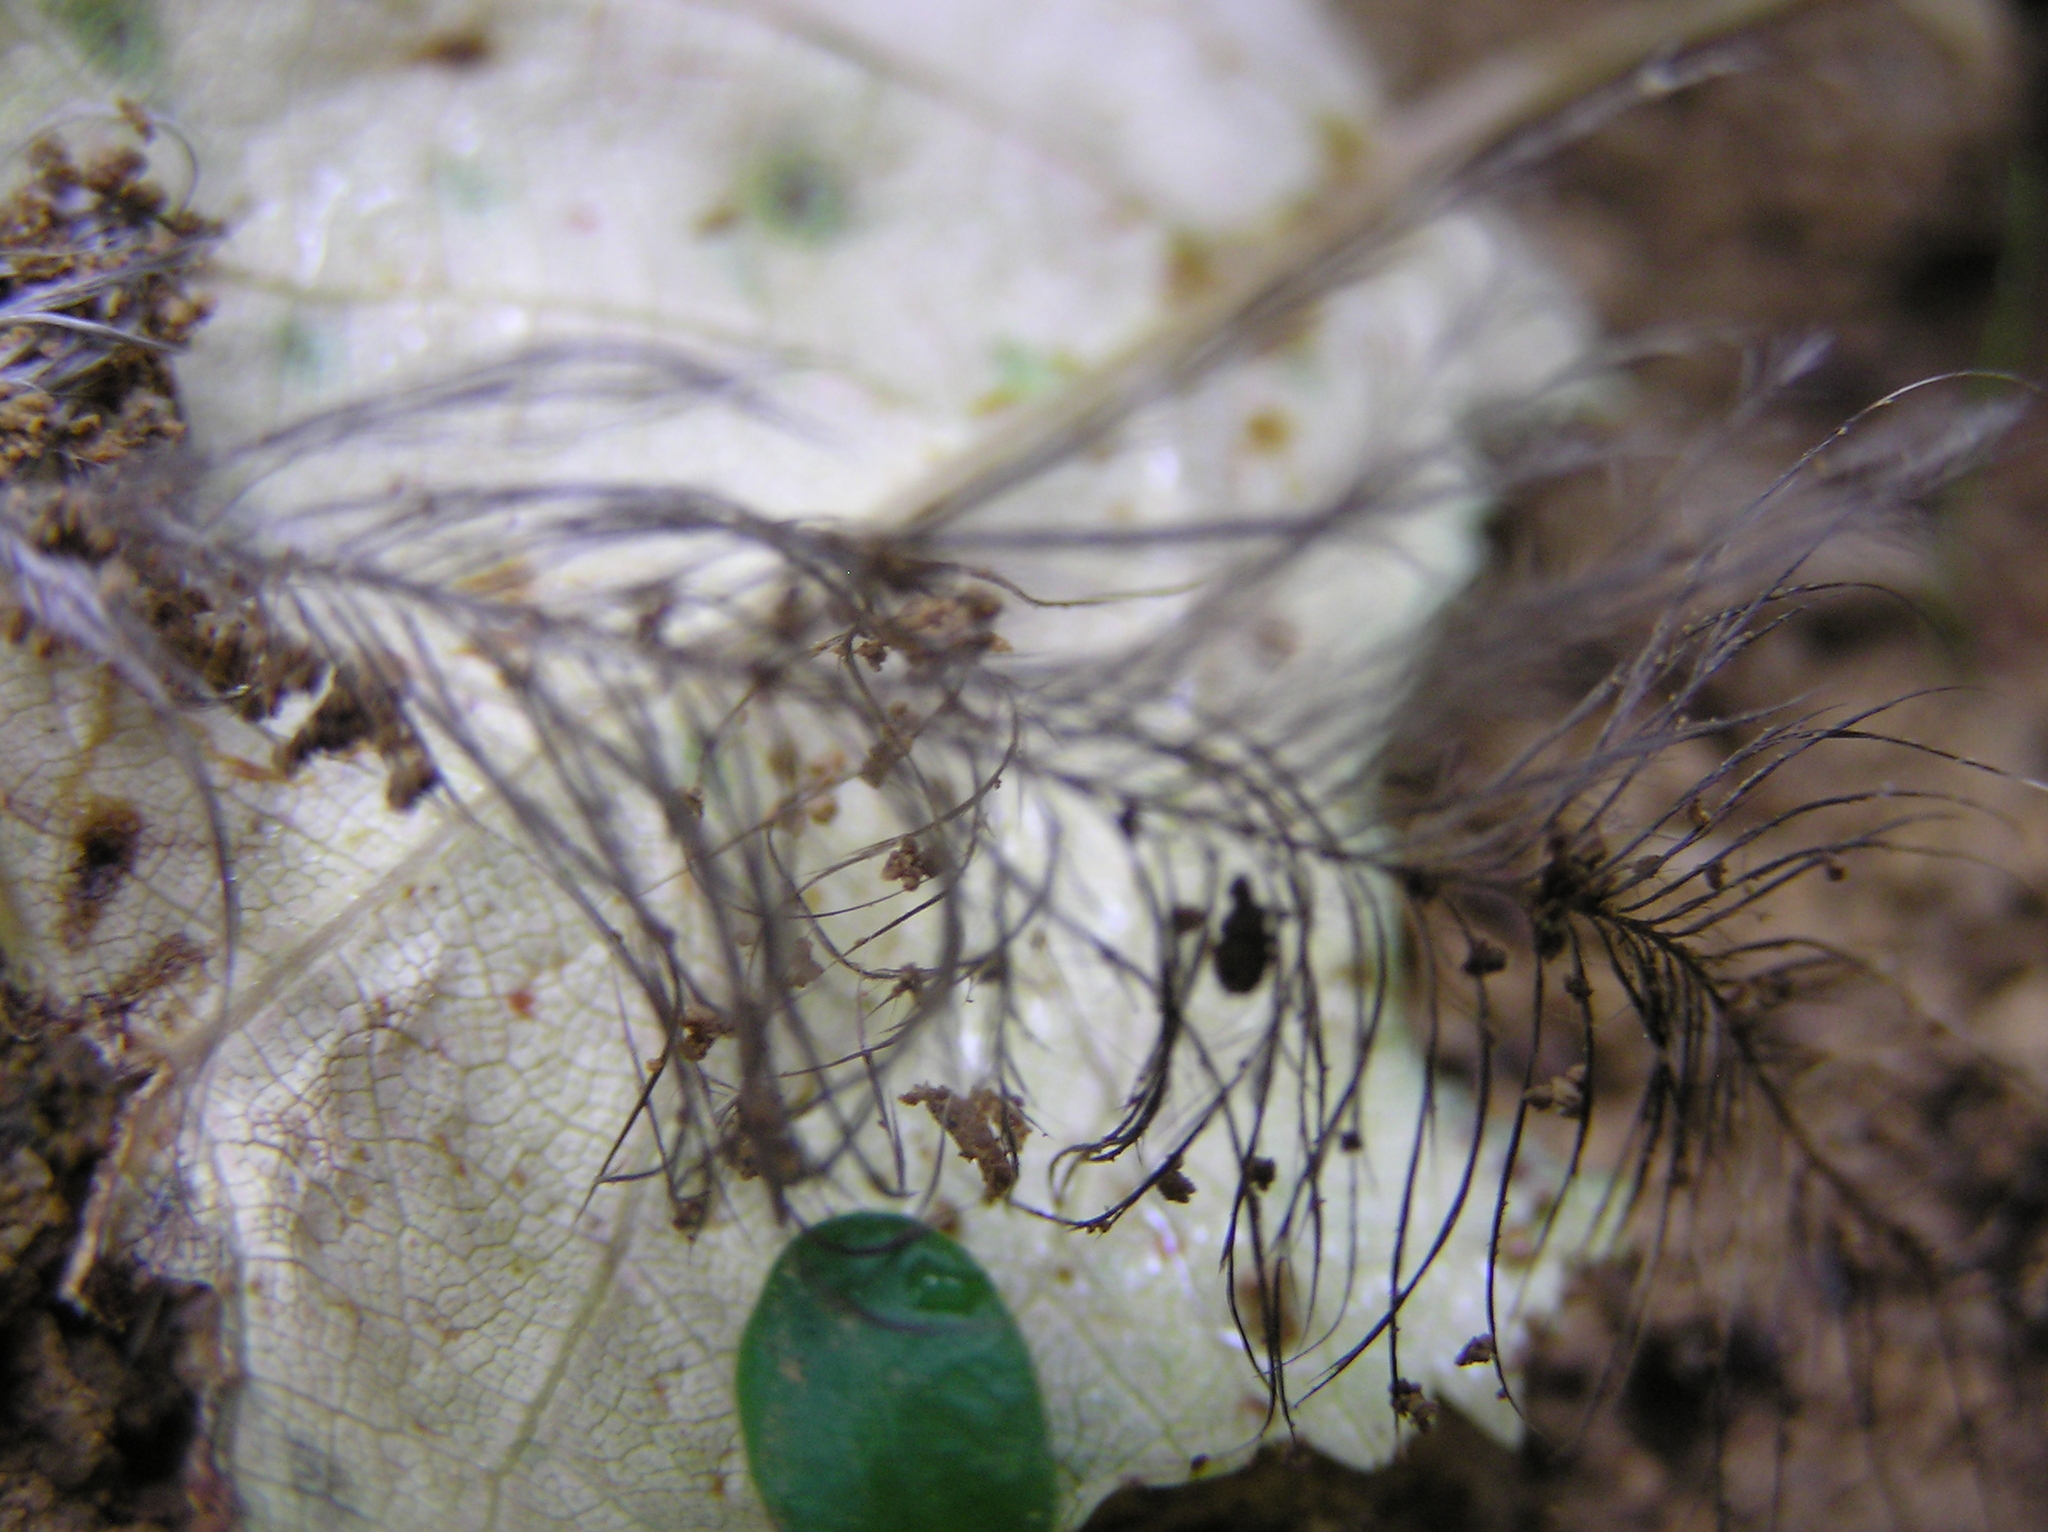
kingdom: Animalia
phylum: Chordata
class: Aves
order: Apterygiformes
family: Apterygidae
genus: Apteryx
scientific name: Apteryx owenii
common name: Little spotted kiwi
